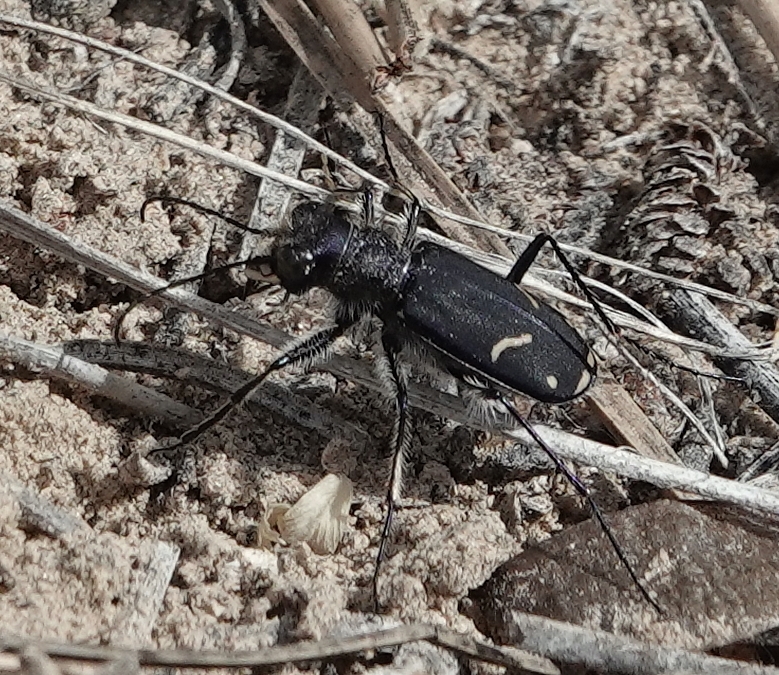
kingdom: Animalia
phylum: Arthropoda
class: Insecta
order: Coleoptera
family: Carabidae
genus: Cicindela
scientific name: Cicindela purpurea
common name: Cow path tiger beetle
